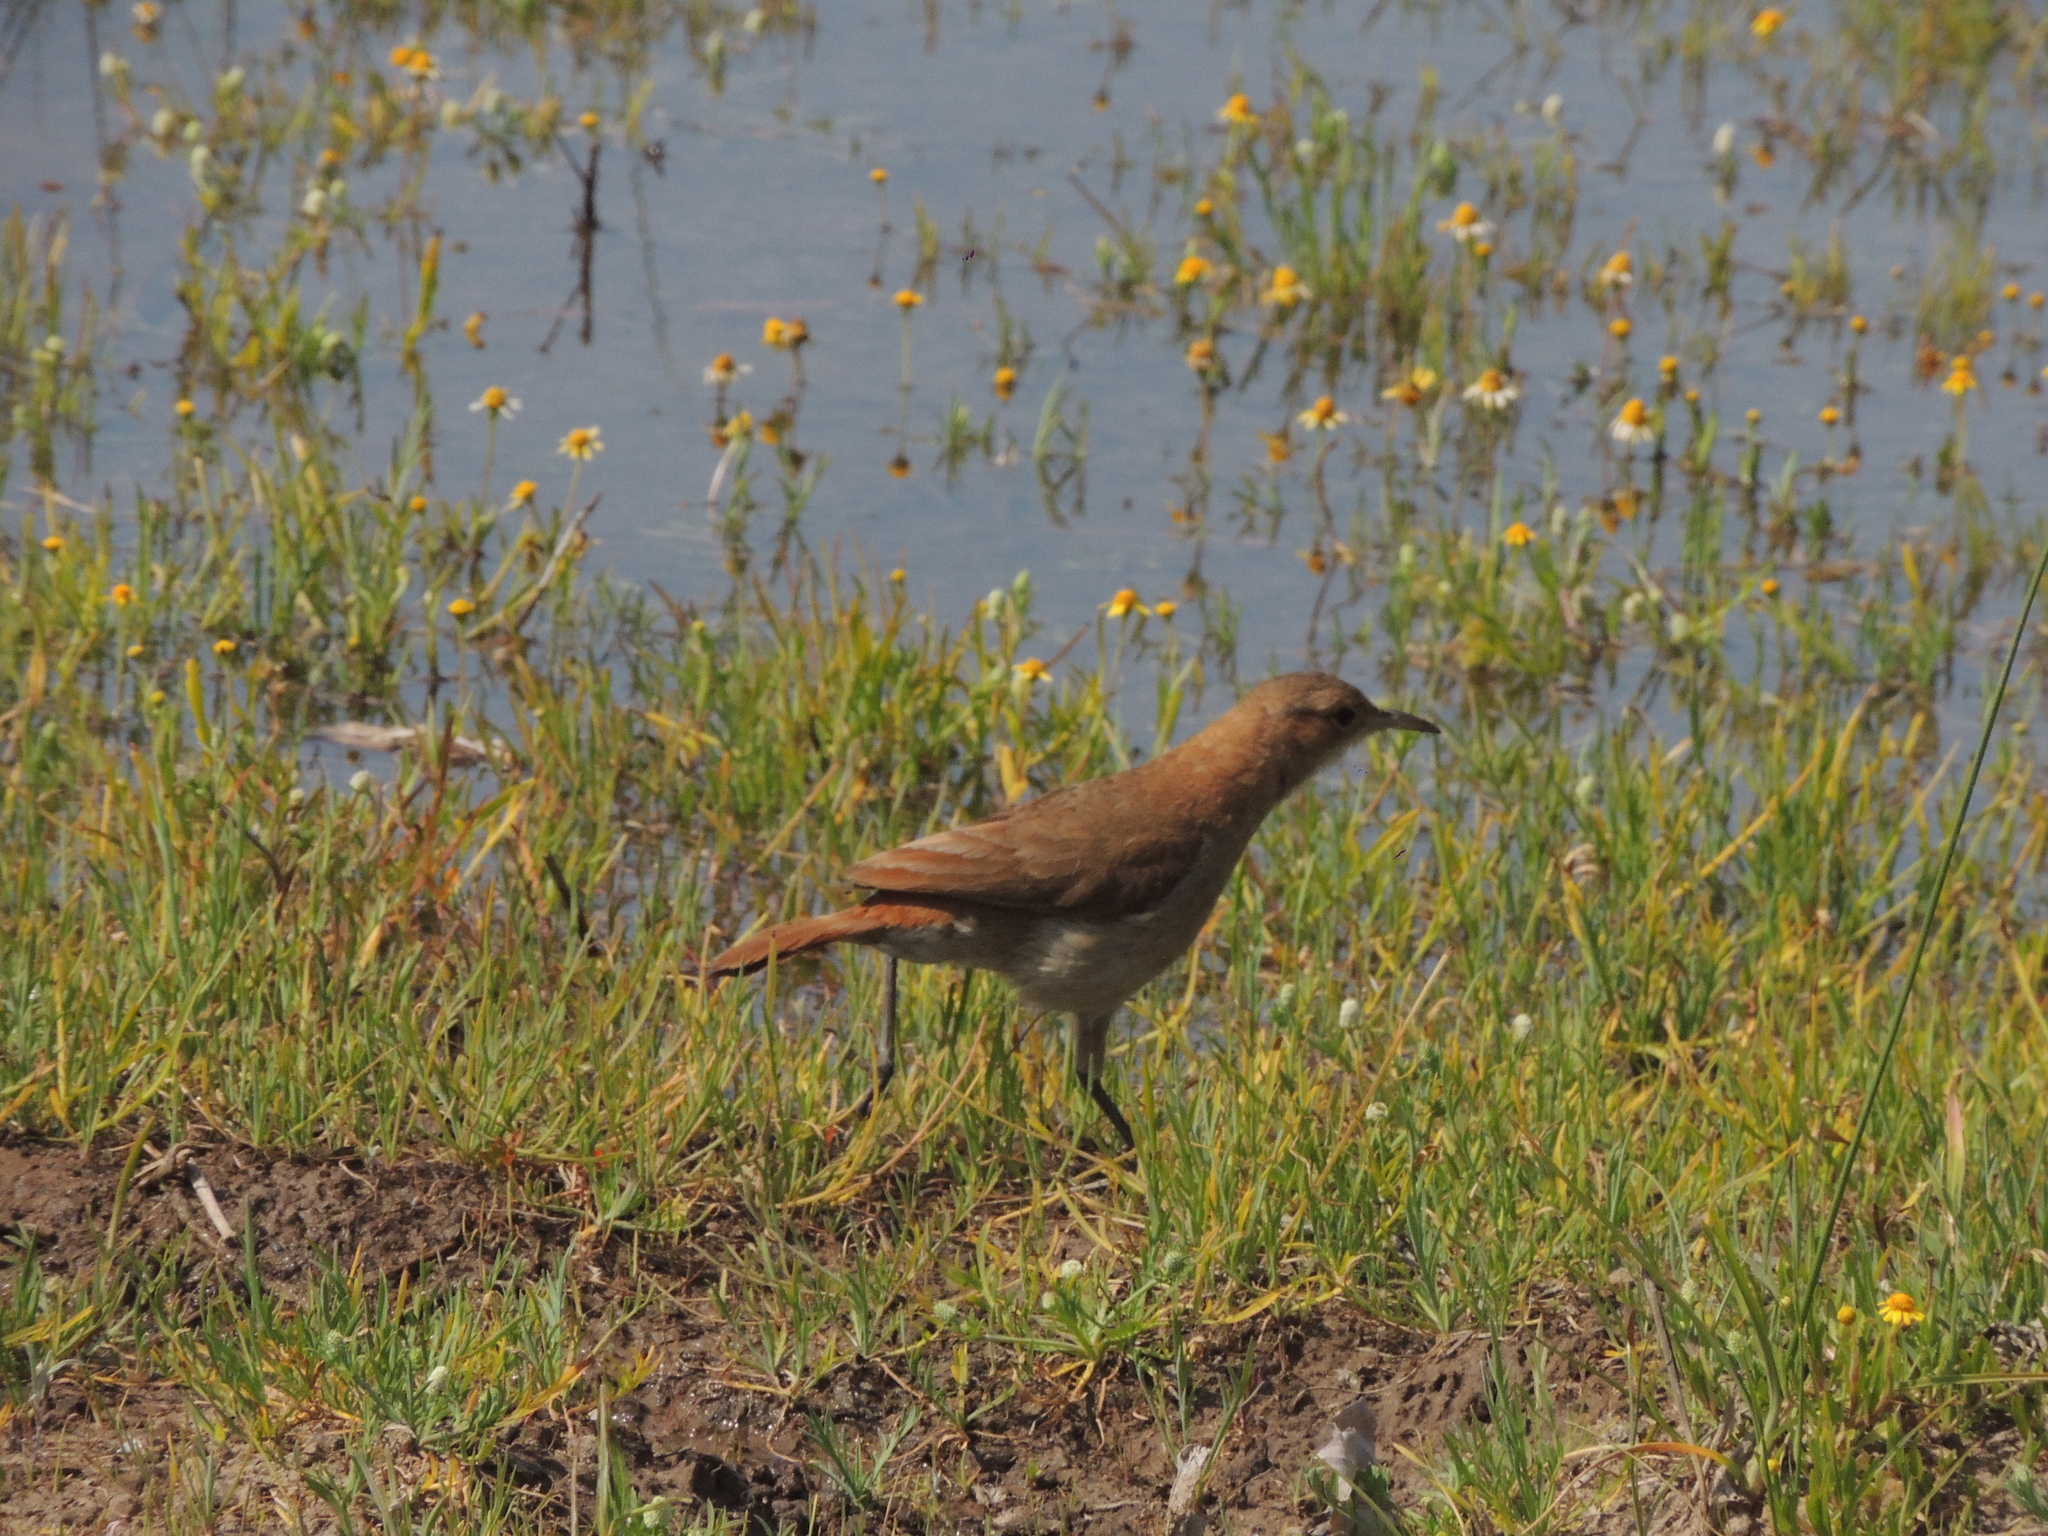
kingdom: Animalia
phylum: Chordata
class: Aves
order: Passeriformes
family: Furnariidae
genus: Furnarius
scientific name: Furnarius rufus
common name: Rufous hornero
